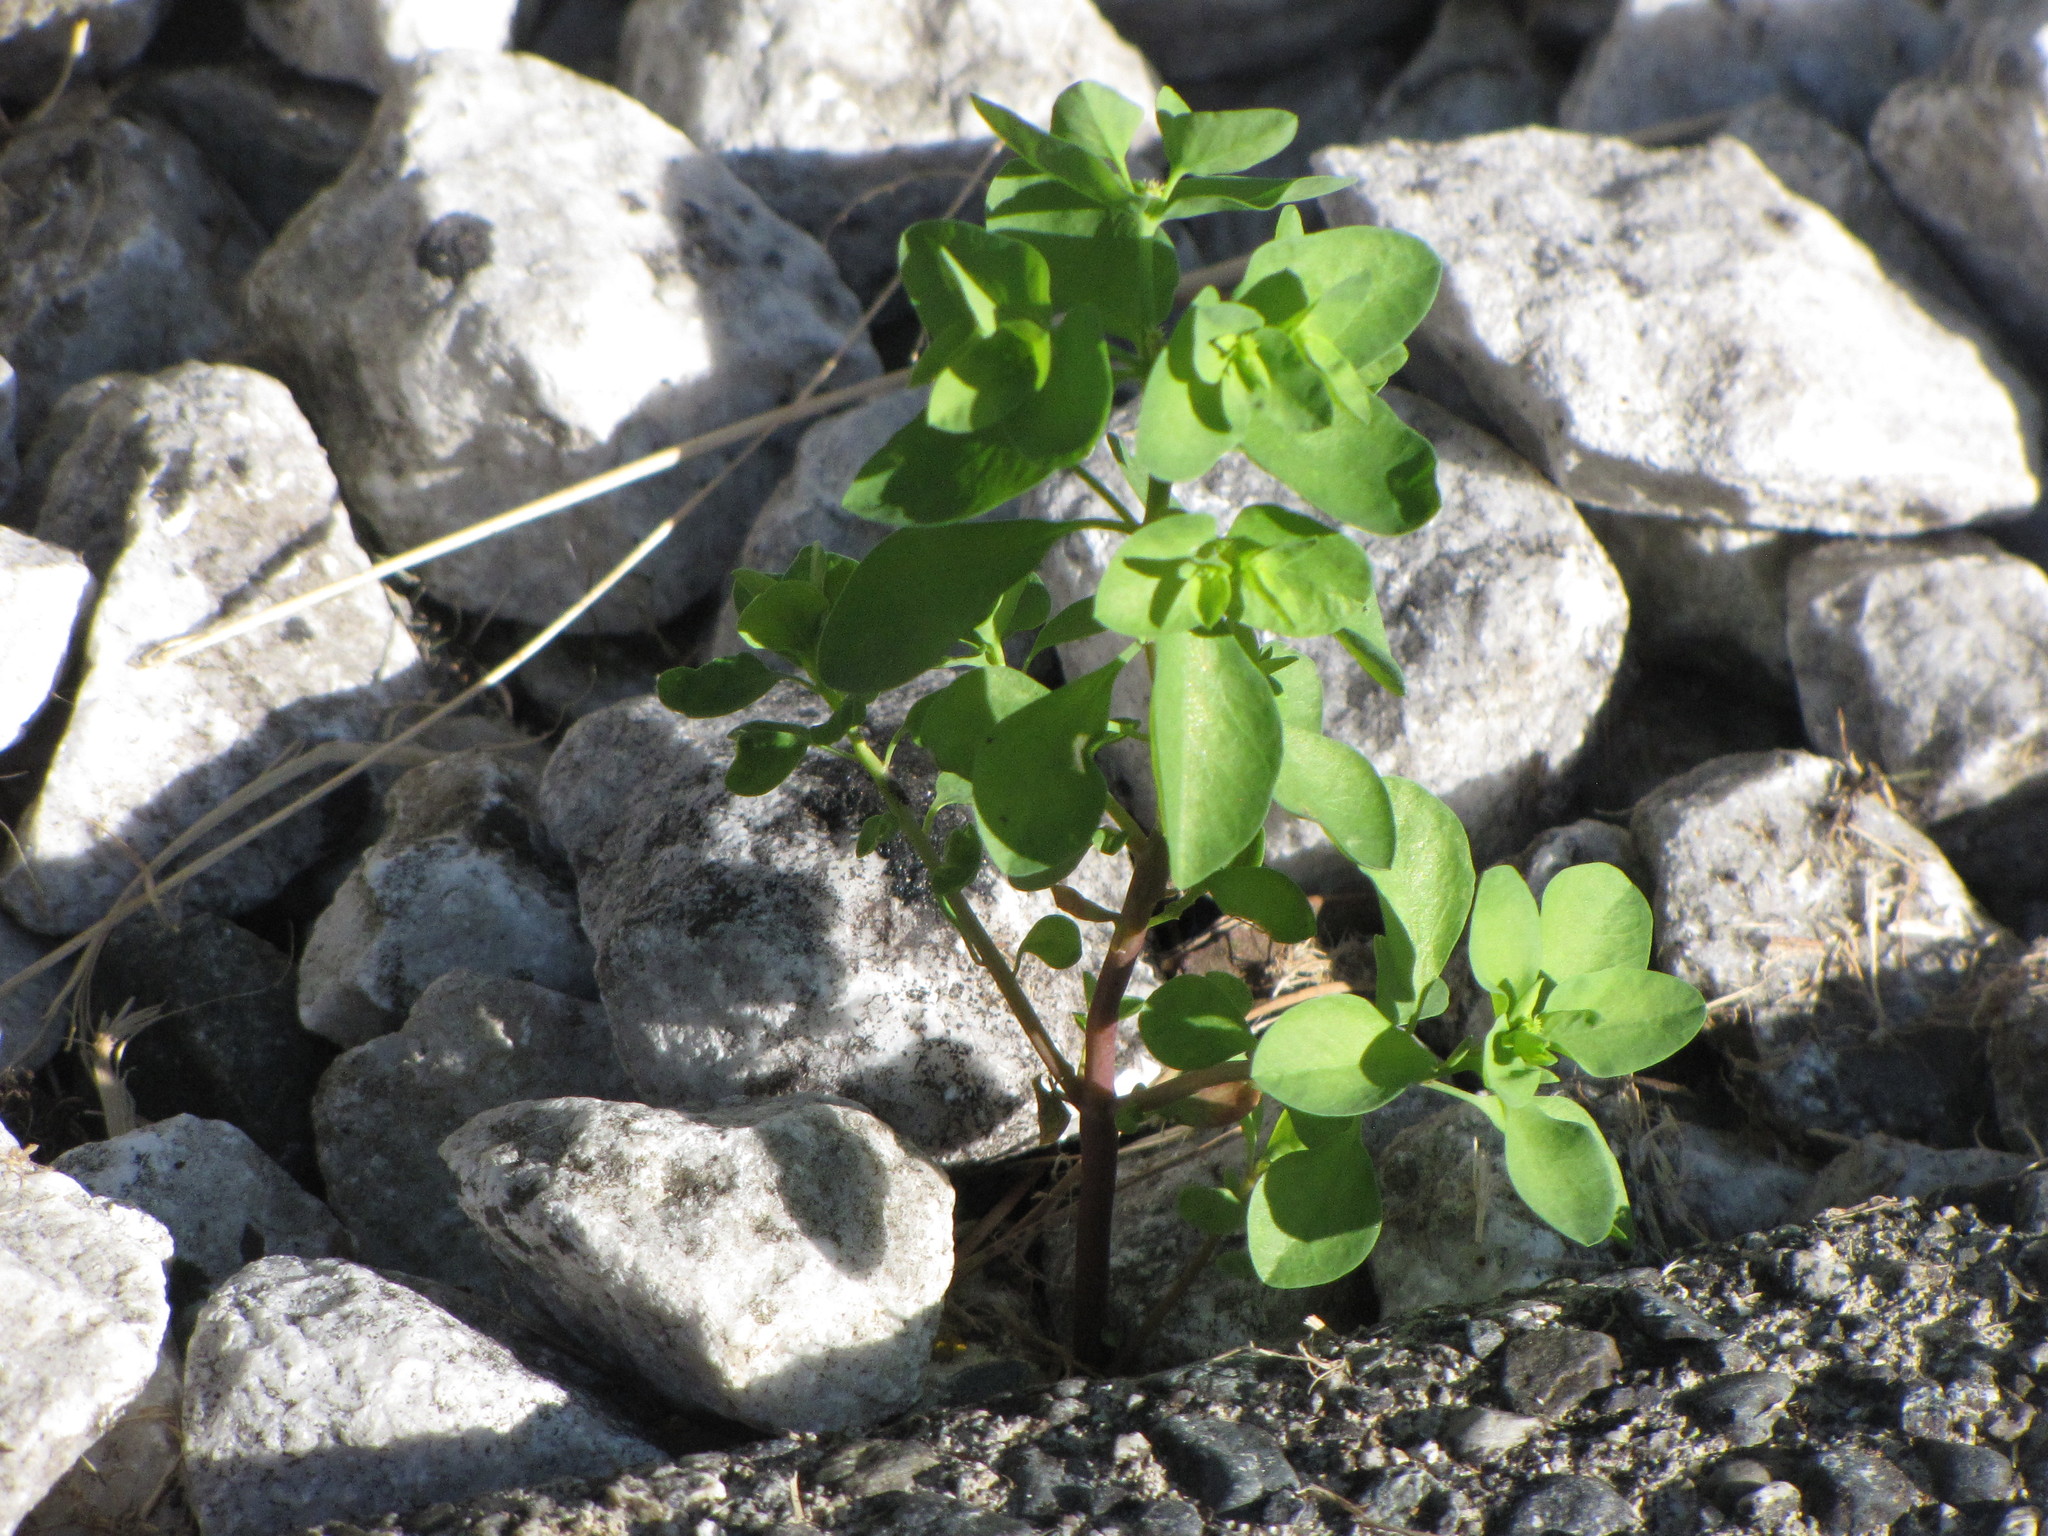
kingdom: Plantae
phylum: Tracheophyta
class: Magnoliopsida
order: Malpighiales
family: Euphorbiaceae
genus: Euphorbia
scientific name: Euphorbia peplus
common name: Petty spurge
